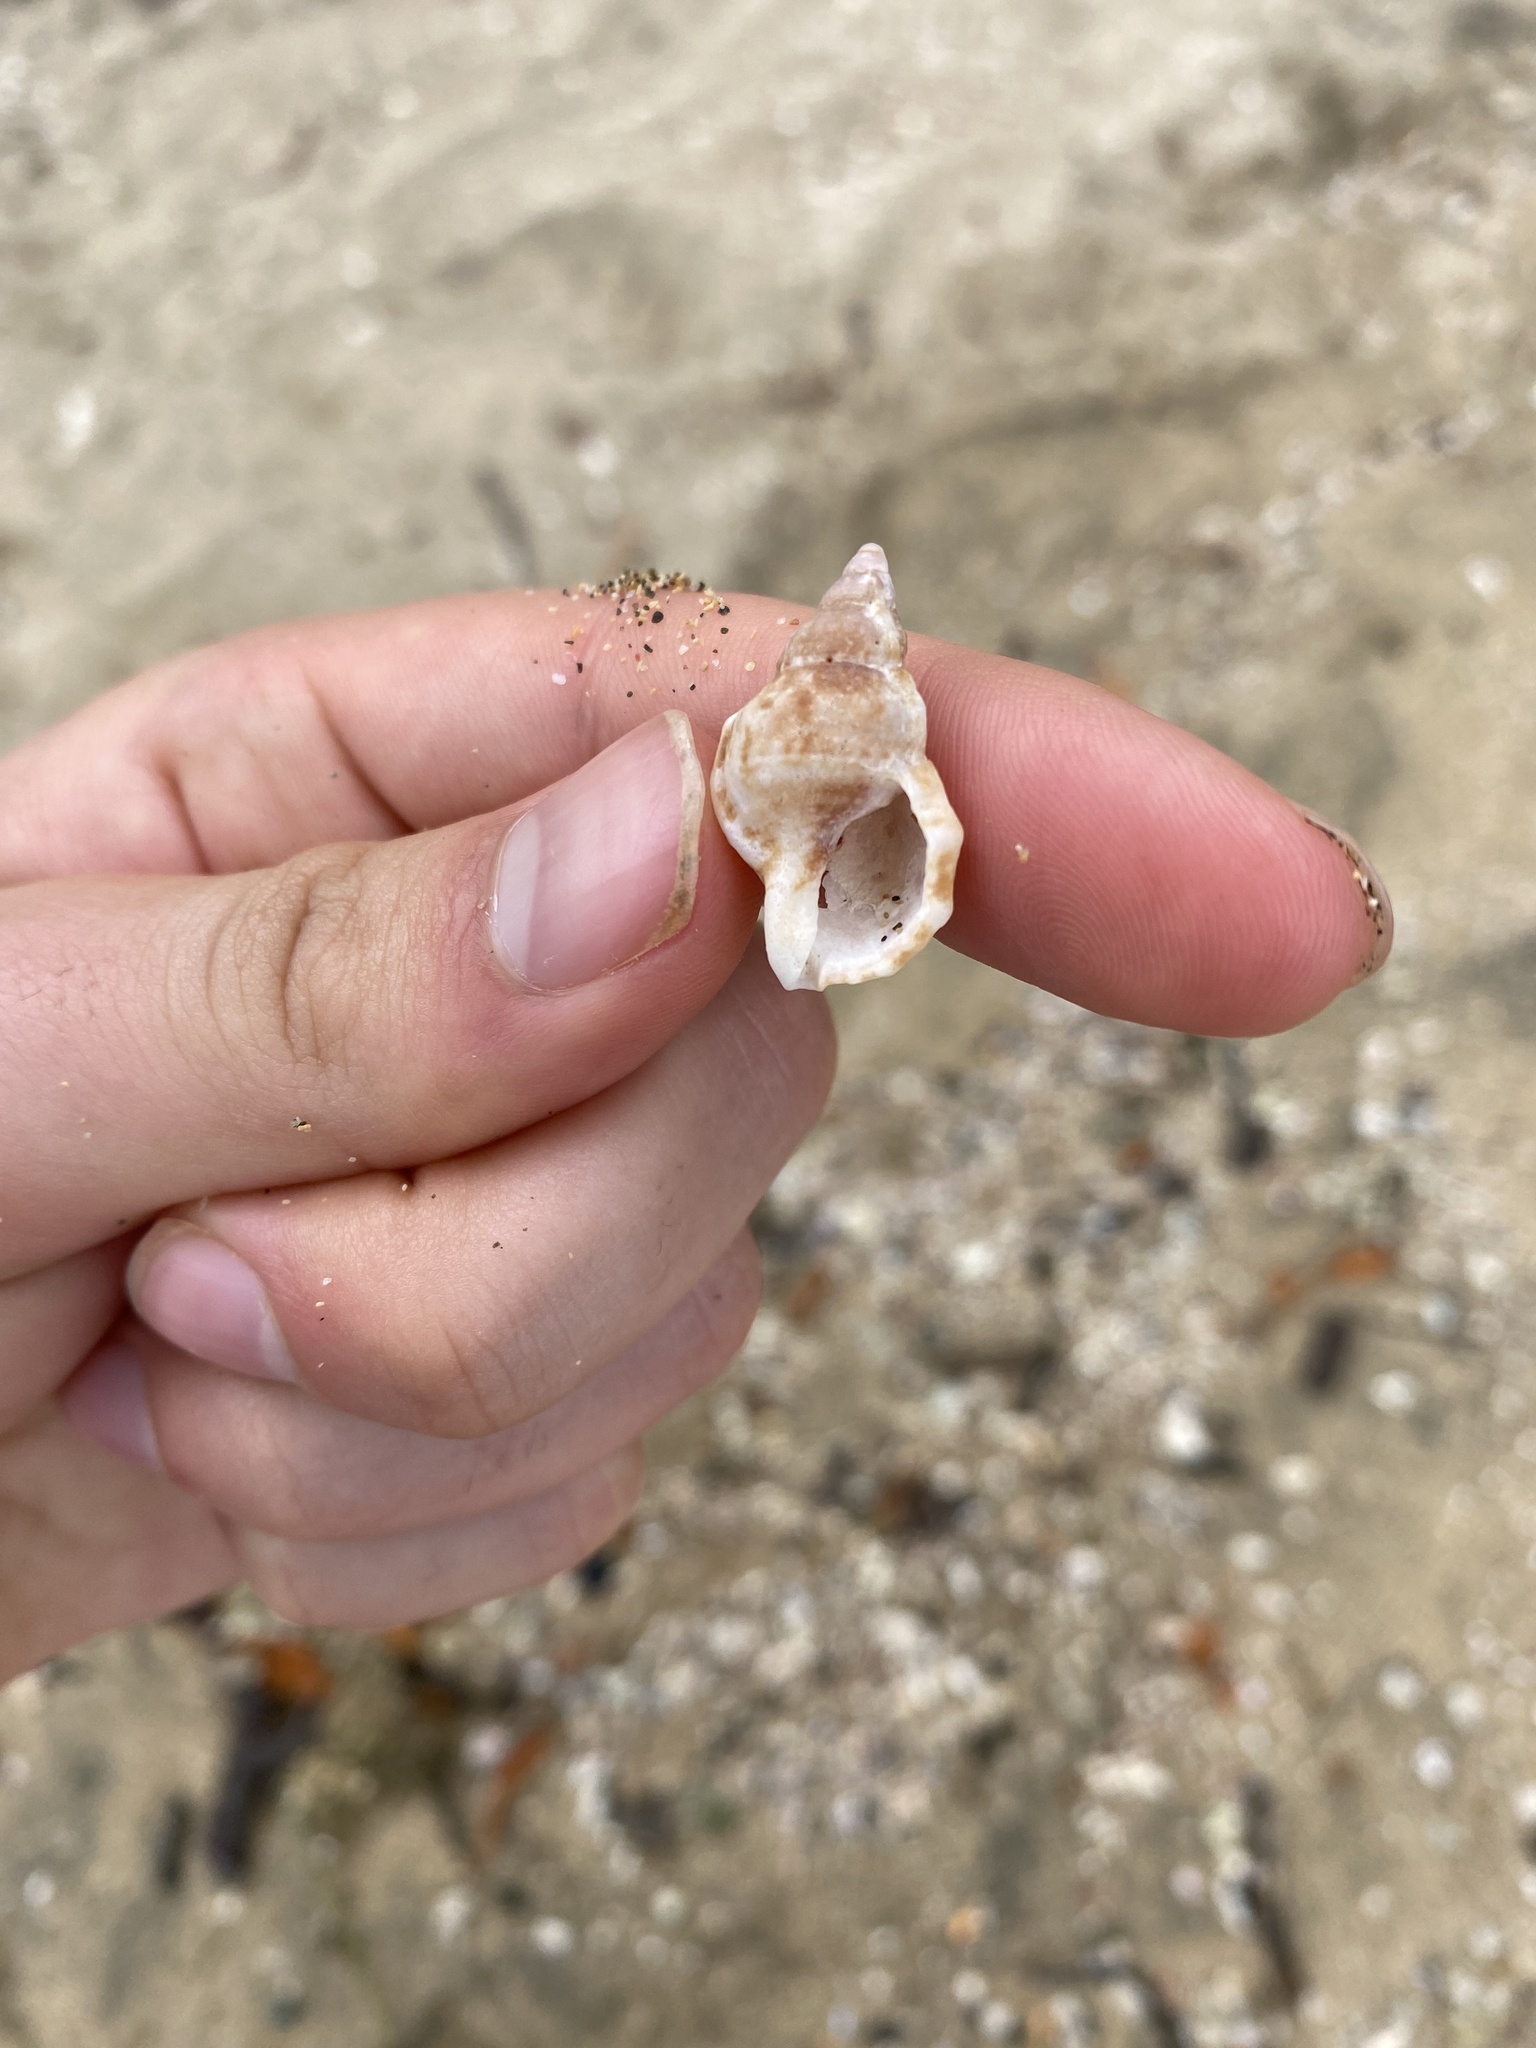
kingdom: Animalia
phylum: Mollusca
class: Gastropoda
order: Littorinimorpha
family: Bursidae
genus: Dulcerana
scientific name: Dulcerana cubaniana
